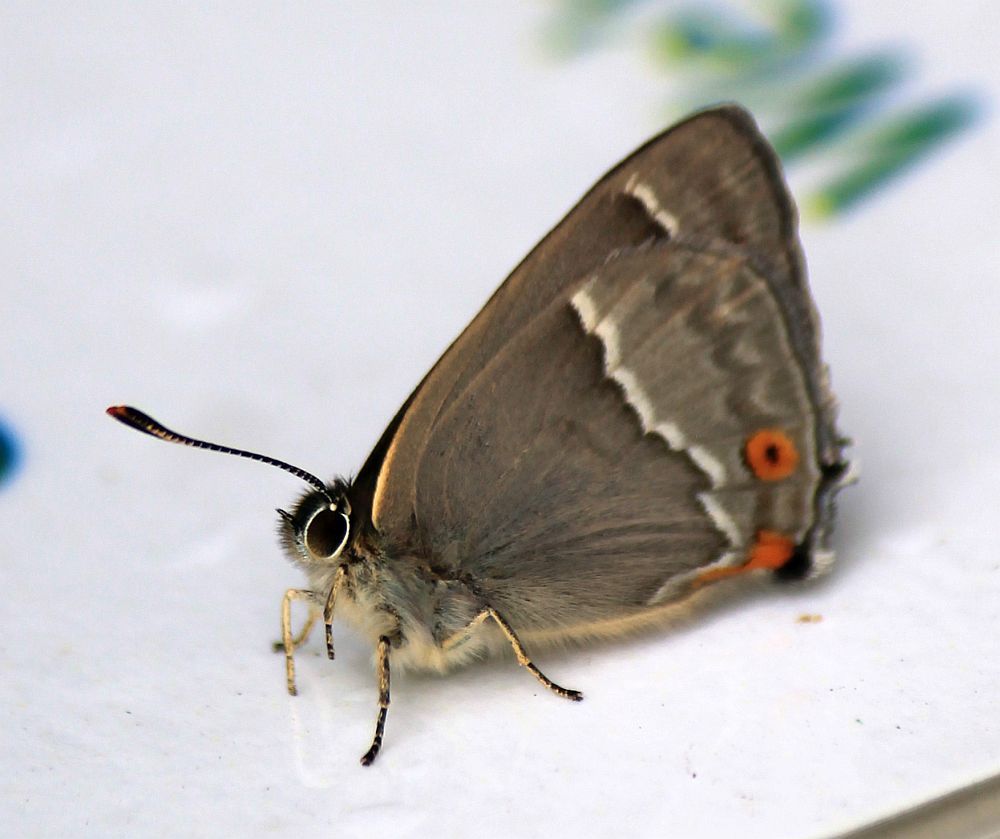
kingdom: Animalia
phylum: Arthropoda
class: Insecta
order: Lepidoptera
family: Lycaenidae
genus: Quercusia
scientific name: Quercusia quercus
